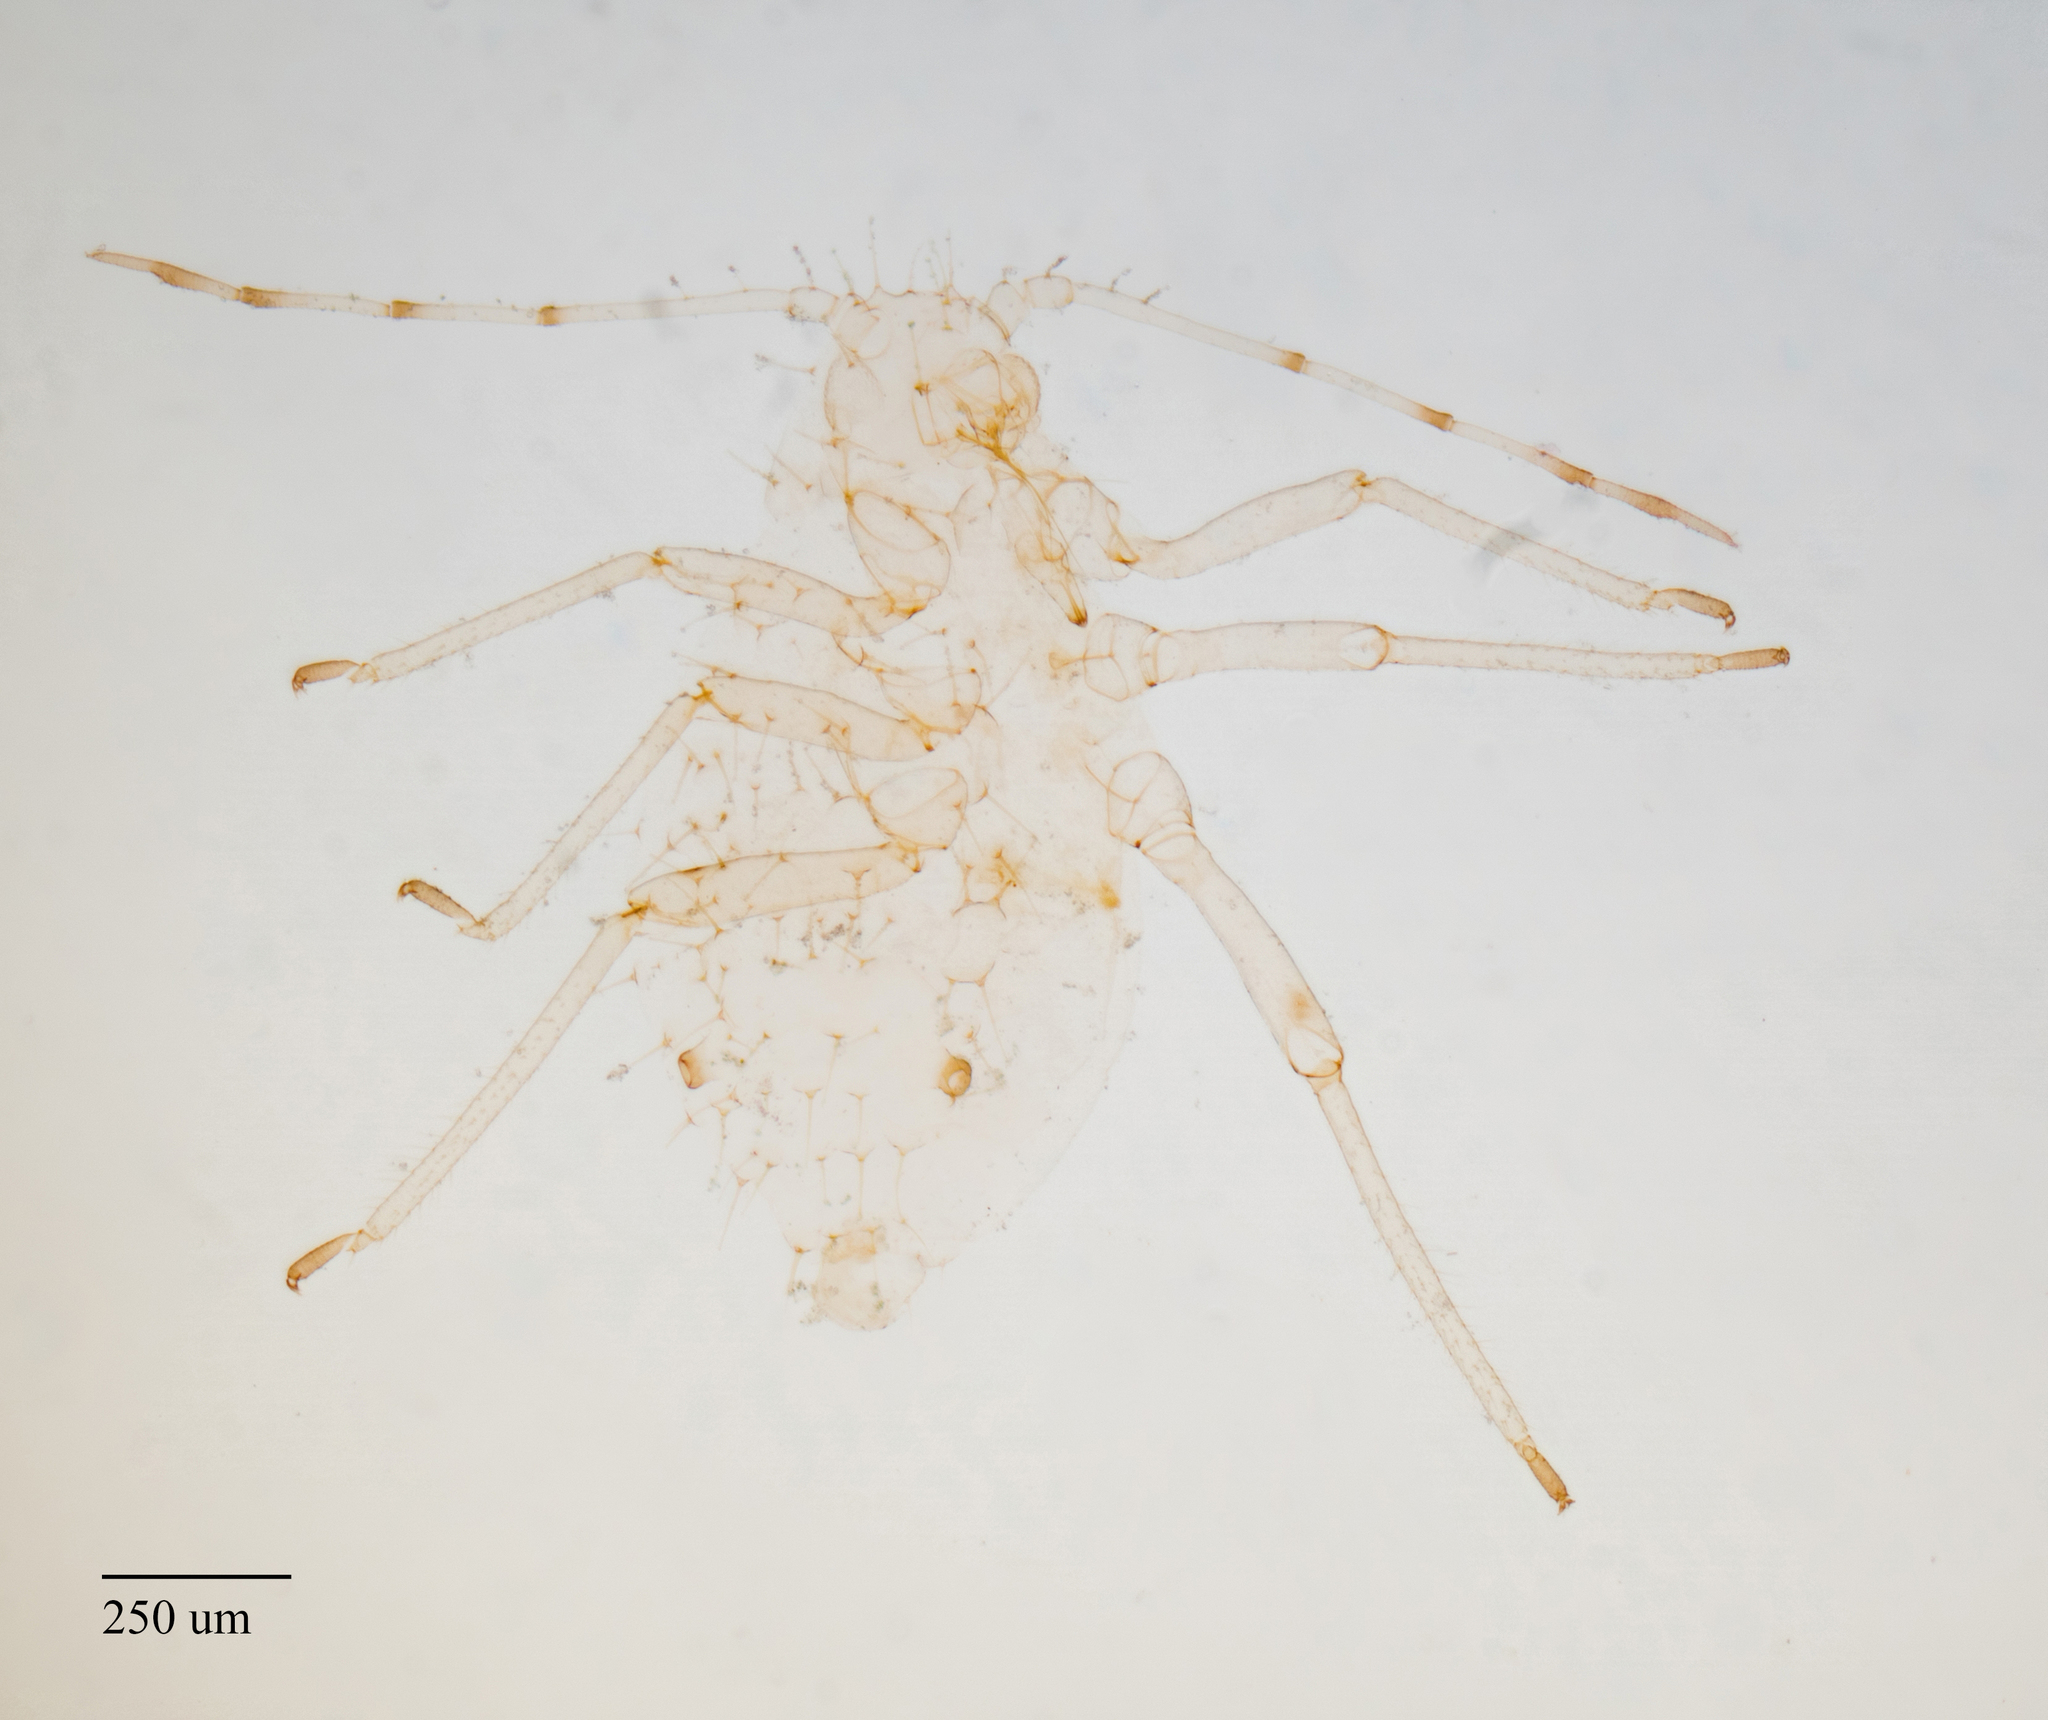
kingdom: Animalia
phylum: Arthropoda
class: Insecta
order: Hemiptera
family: Aphididae
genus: Pterocallis
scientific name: Pterocallis alni
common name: Aphid
